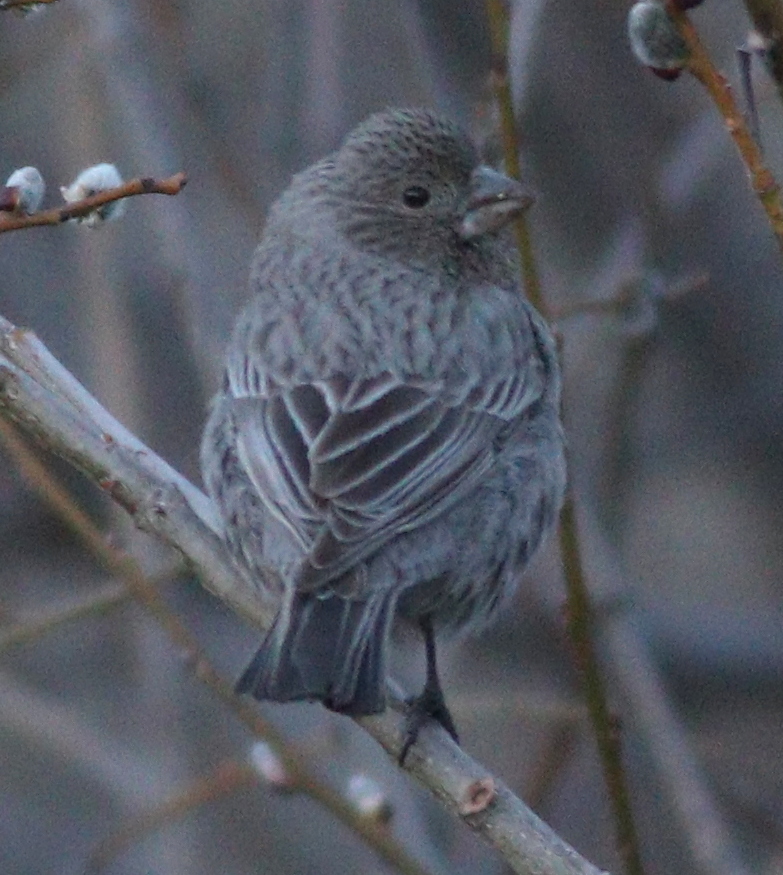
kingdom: Animalia
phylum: Chordata
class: Aves
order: Passeriformes
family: Fringillidae
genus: Carpodacus
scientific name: Carpodacus rubicilla
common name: Great rosefinch
